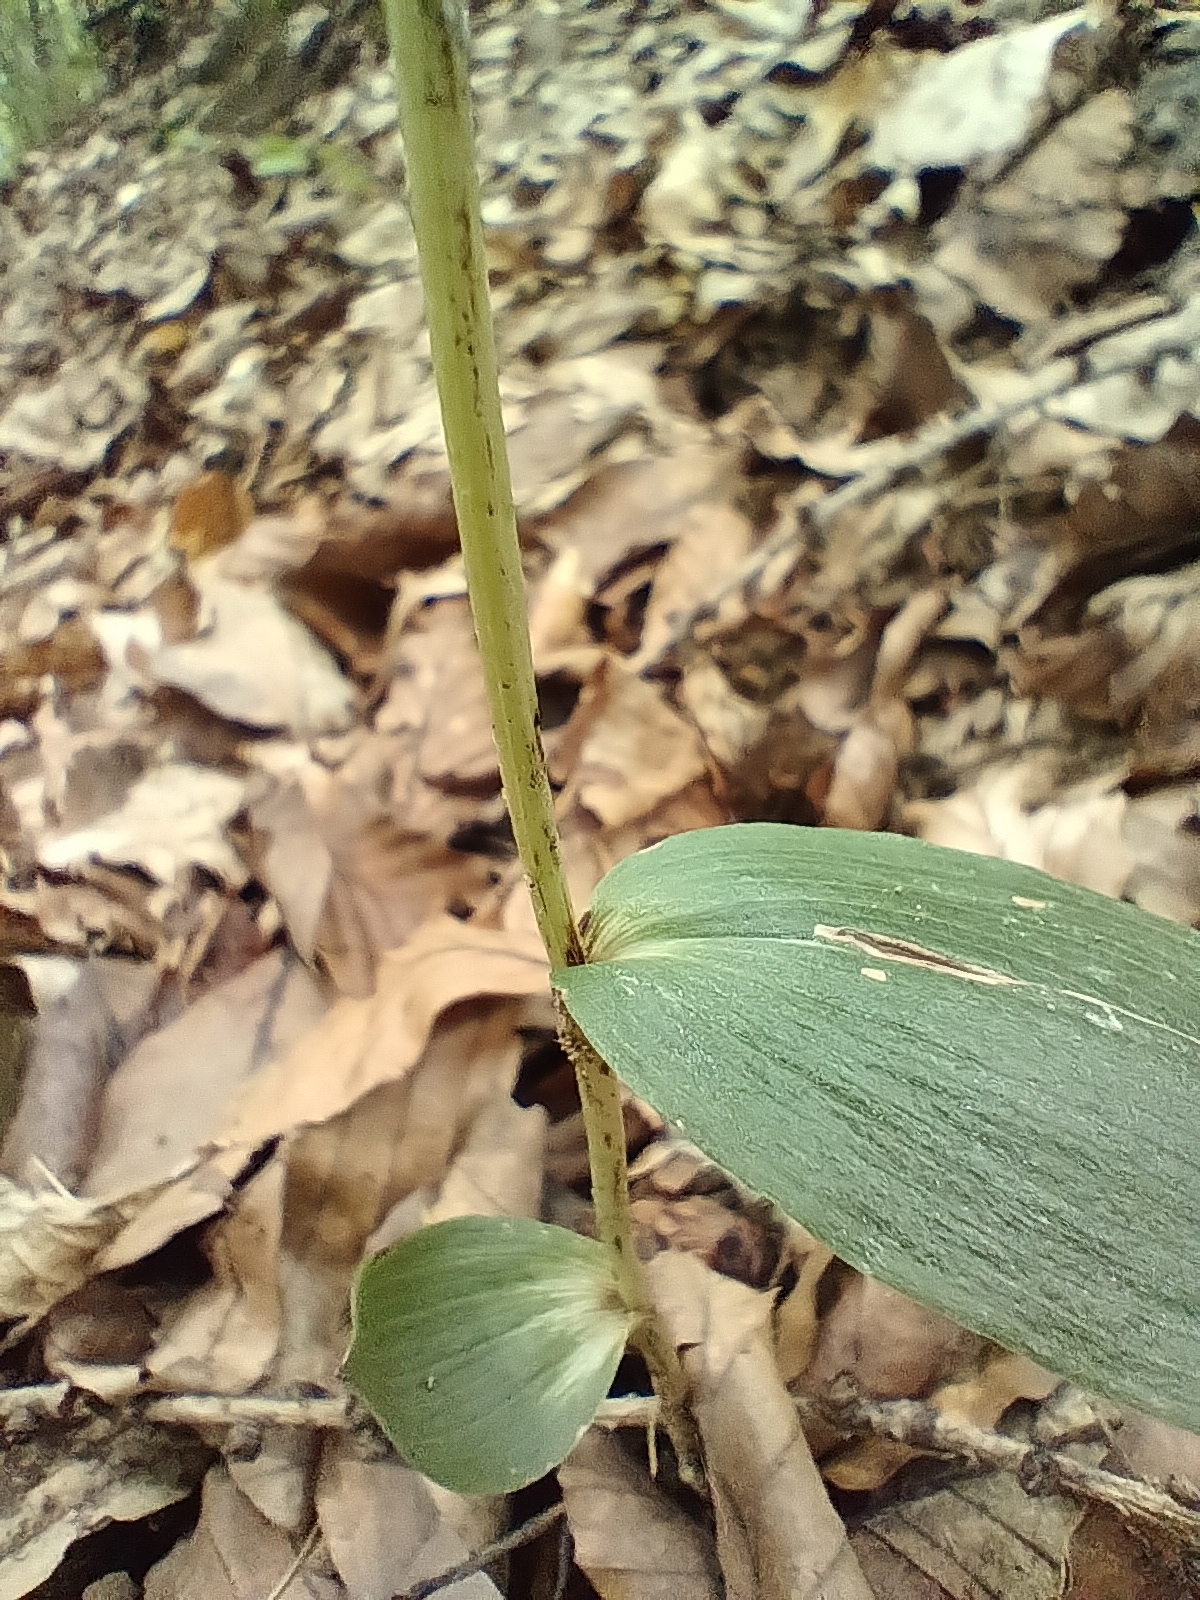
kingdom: Plantae
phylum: Tracheophyta
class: Liliopsida
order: Asparagales
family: Orchidaceae
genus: Cephalanthera
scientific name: Cephalanthera damasonium
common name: White helleborine
